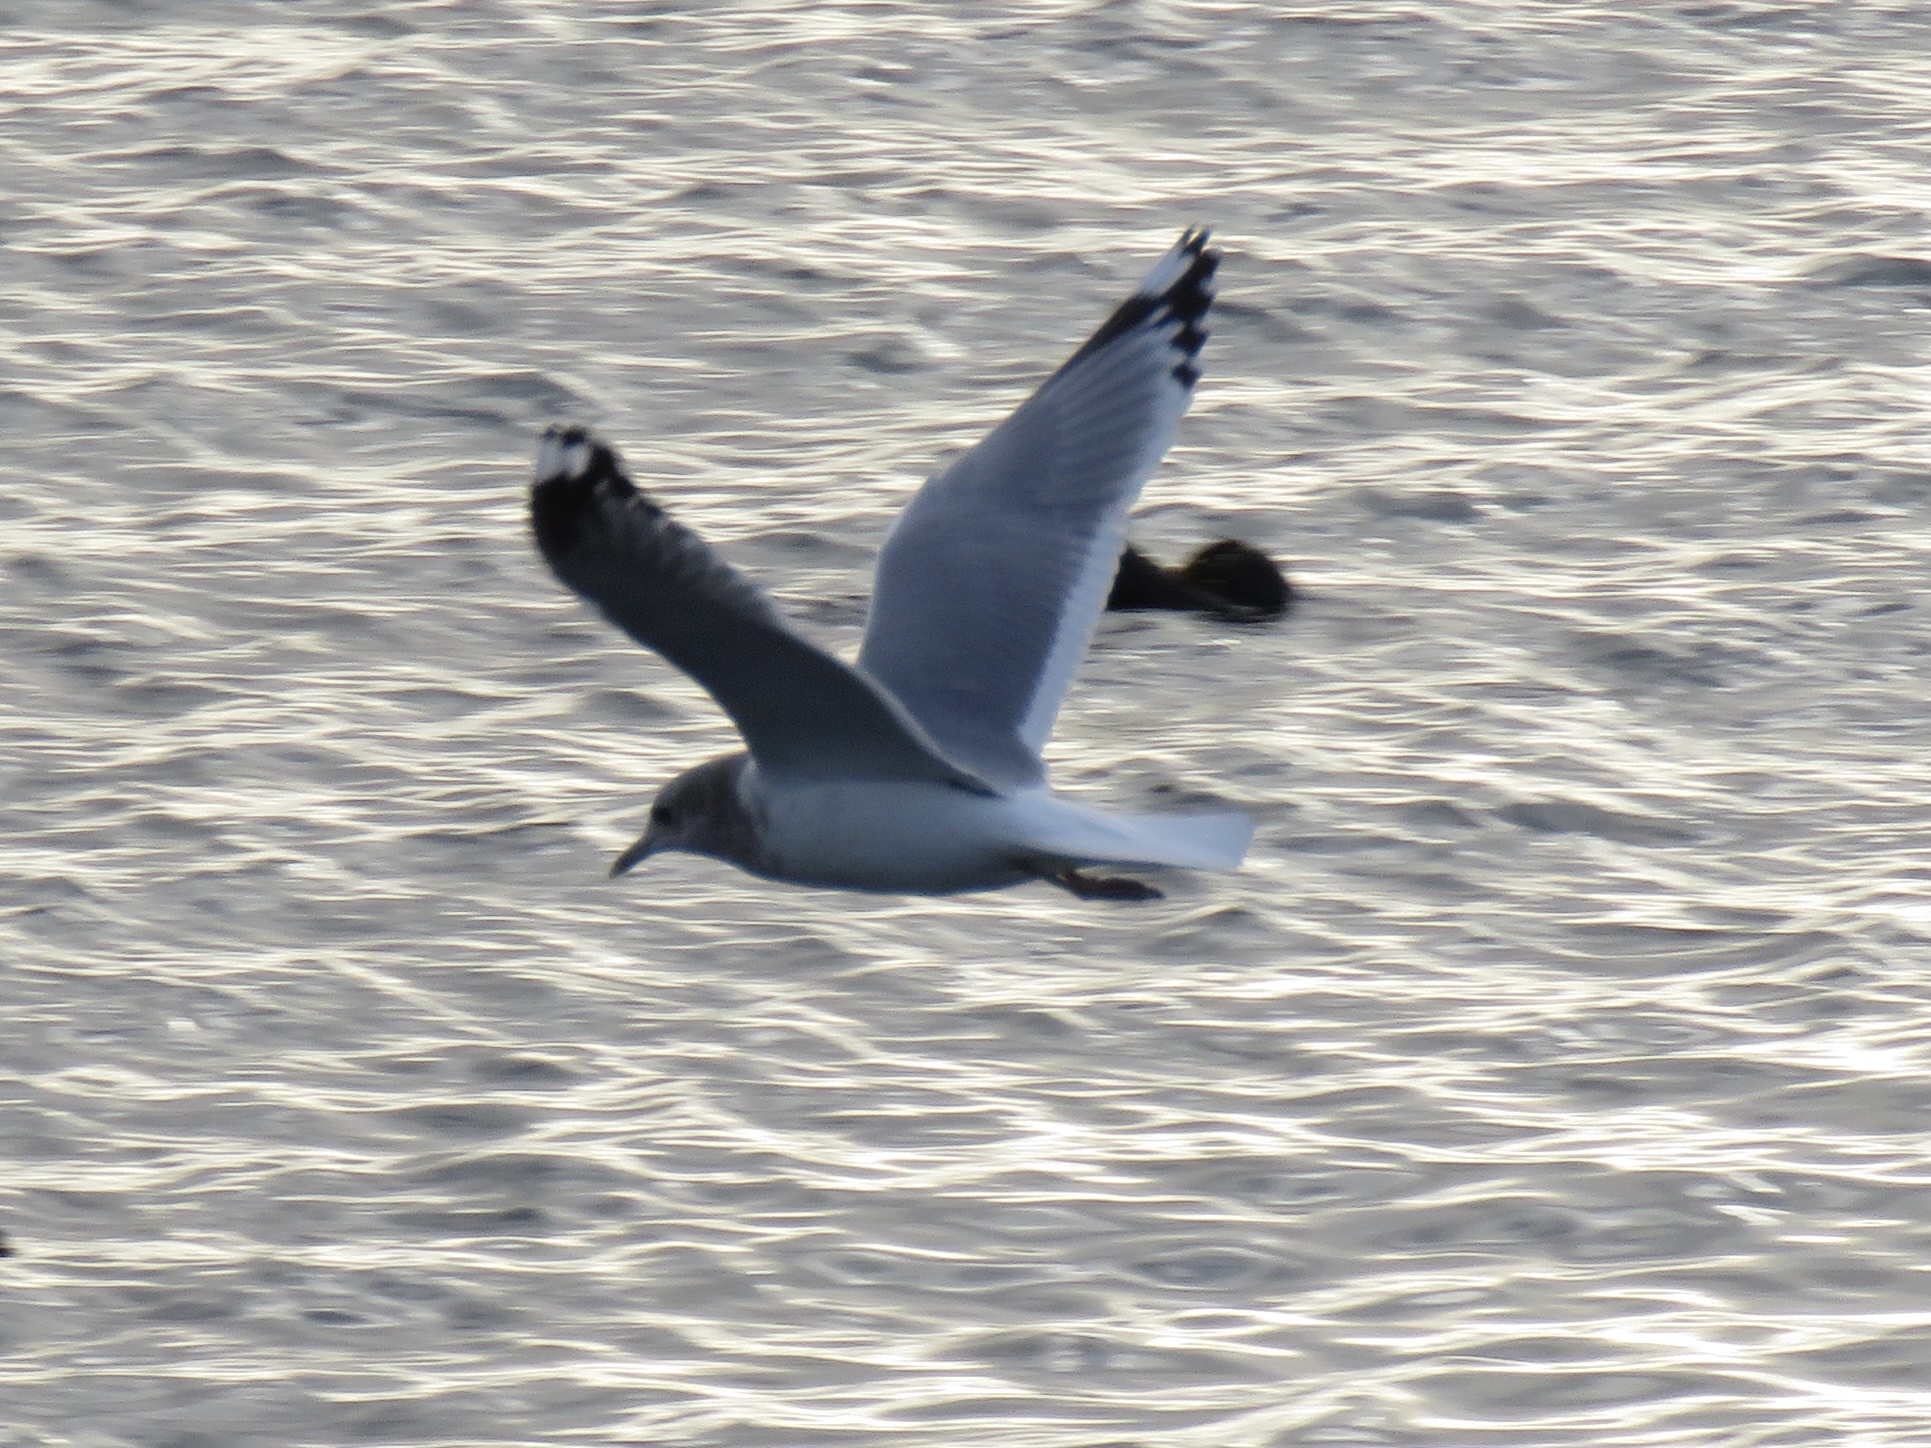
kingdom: Animalia
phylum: Chordata
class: Aves
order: Charadriiformes
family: Laridae
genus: Larus
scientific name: Larus brachyrhynchus
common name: Short-billed gull
